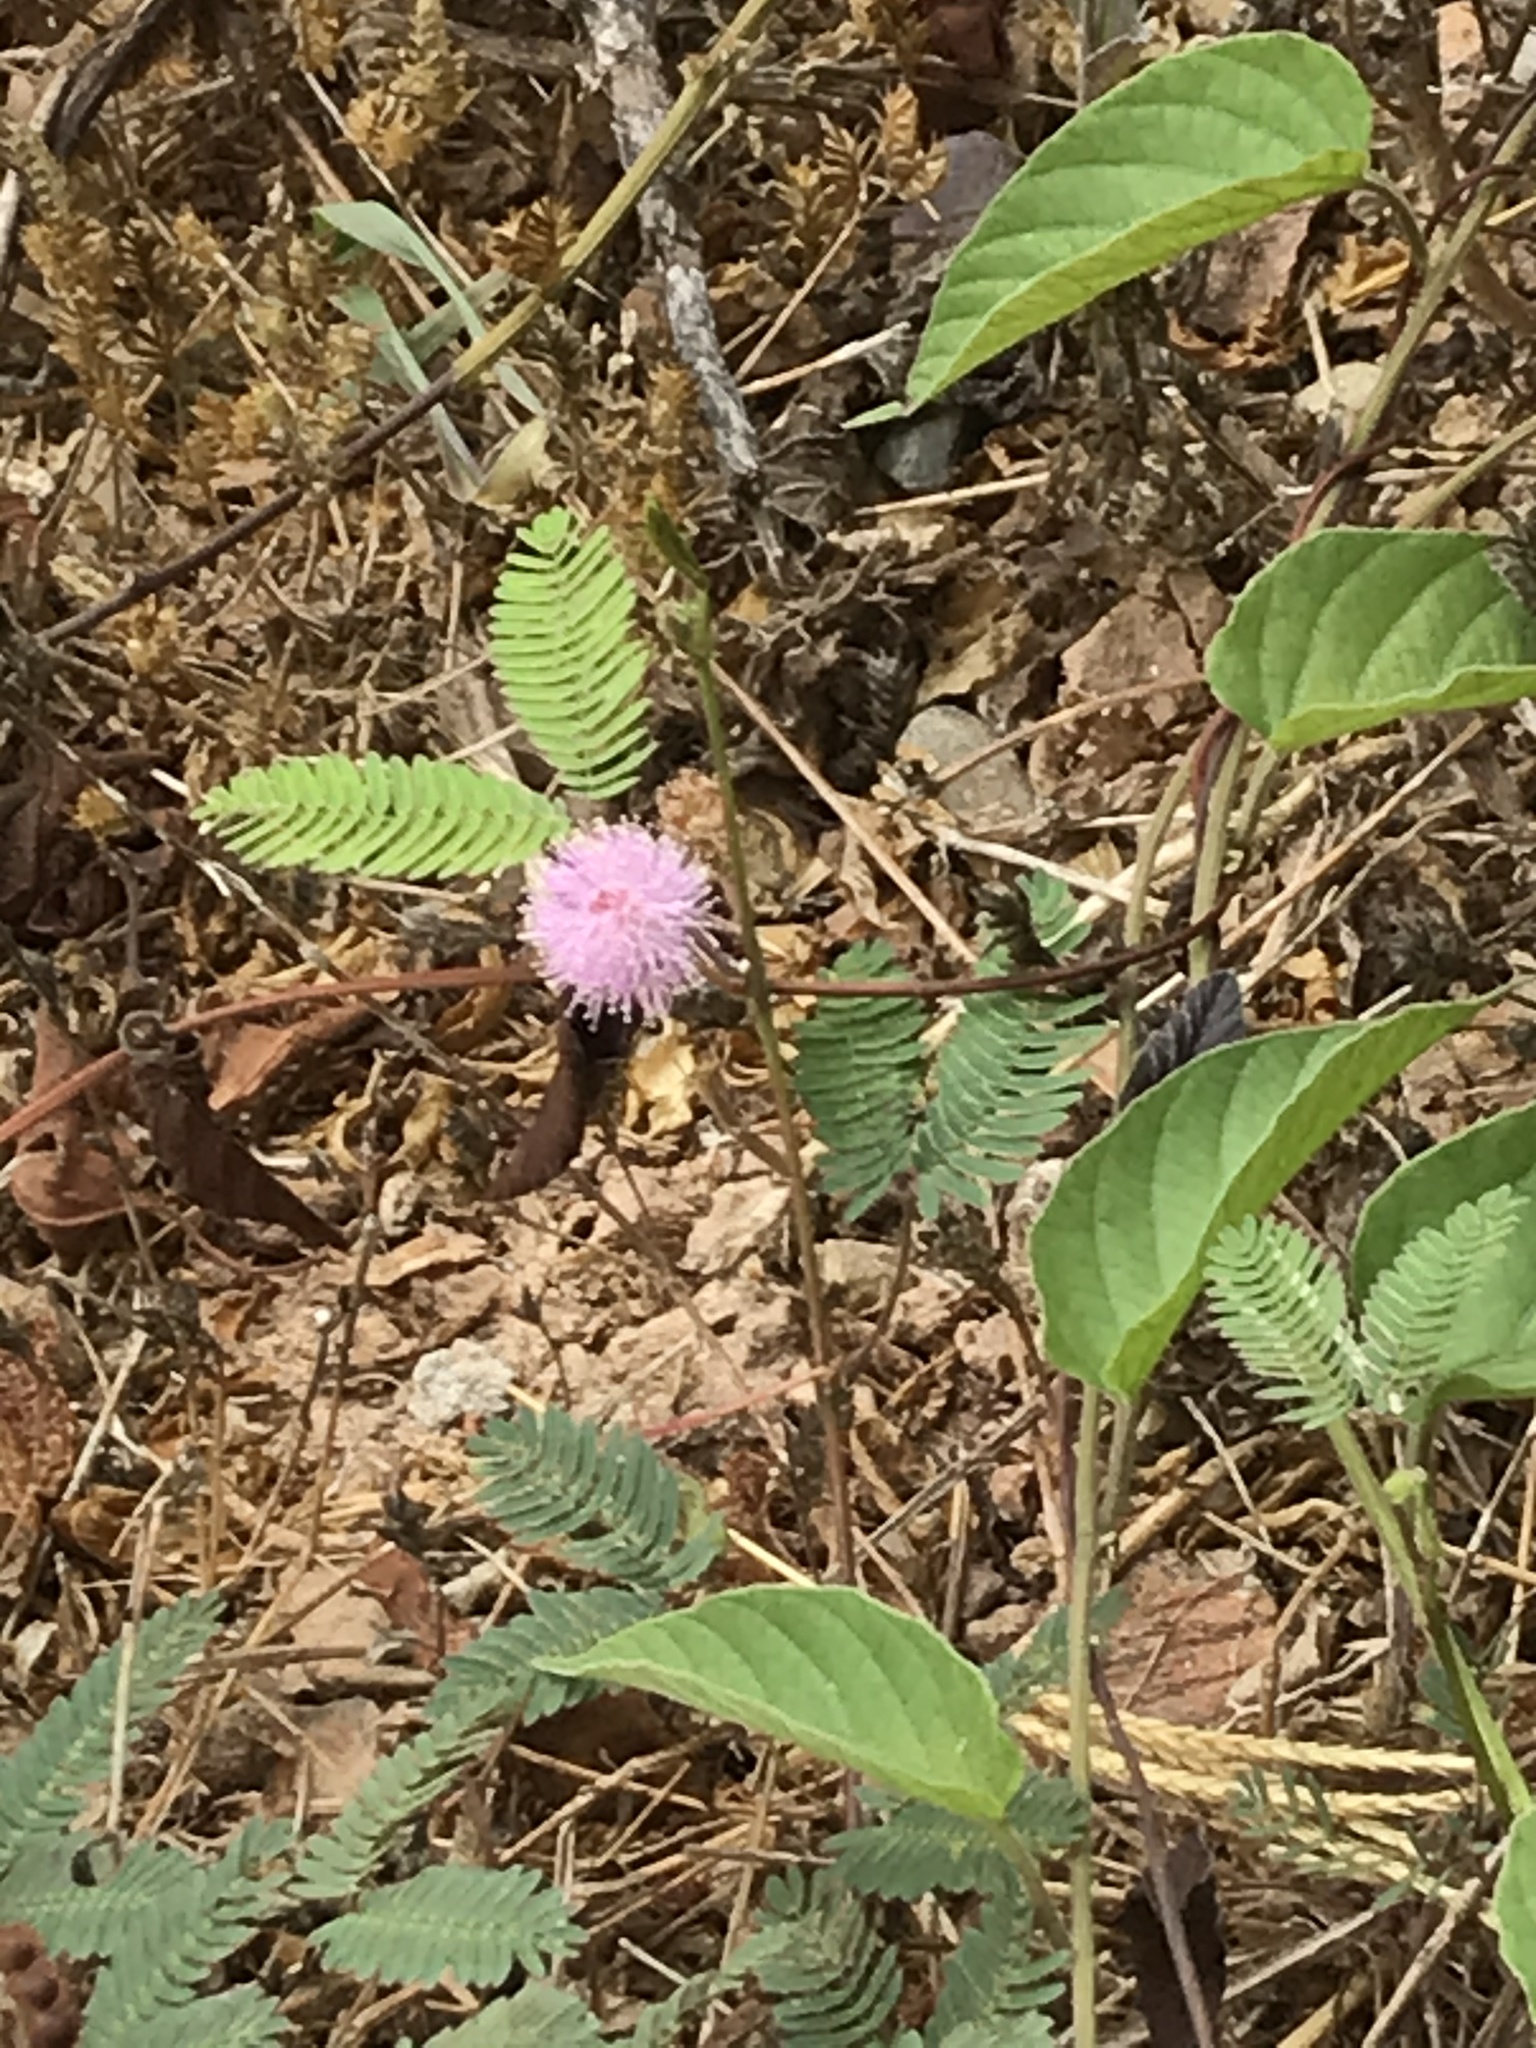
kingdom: Plantae
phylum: Tracheophyta
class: Magnoliopsida
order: Fabales
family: Fabaceae
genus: Mimosa
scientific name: Mimosa pudica
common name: Sensitive plant
